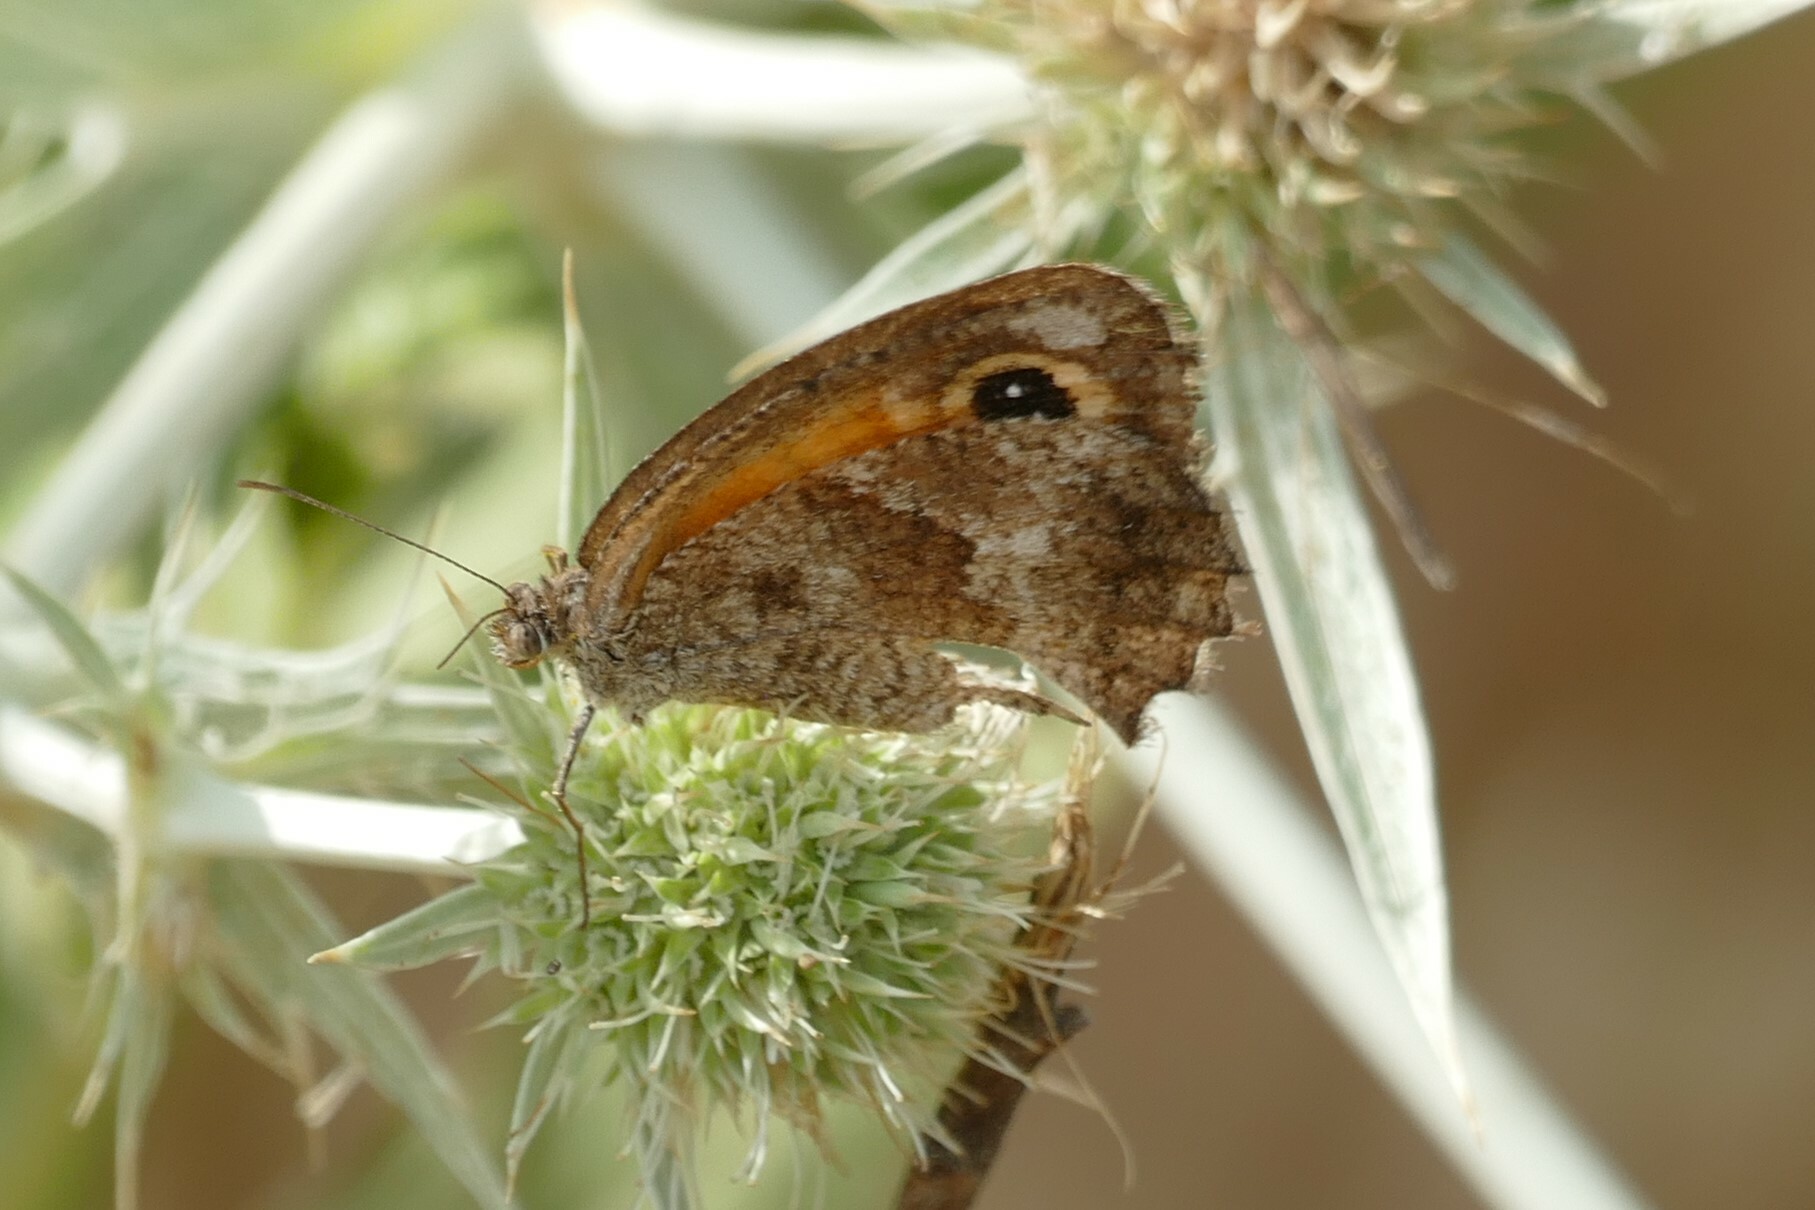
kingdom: Animalia
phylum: Arthropoda
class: Insecta
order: Lepidoptera
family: Nymphalidae
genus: Pyronia
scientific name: Pyronia cecilia
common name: Southern gatekeeper
